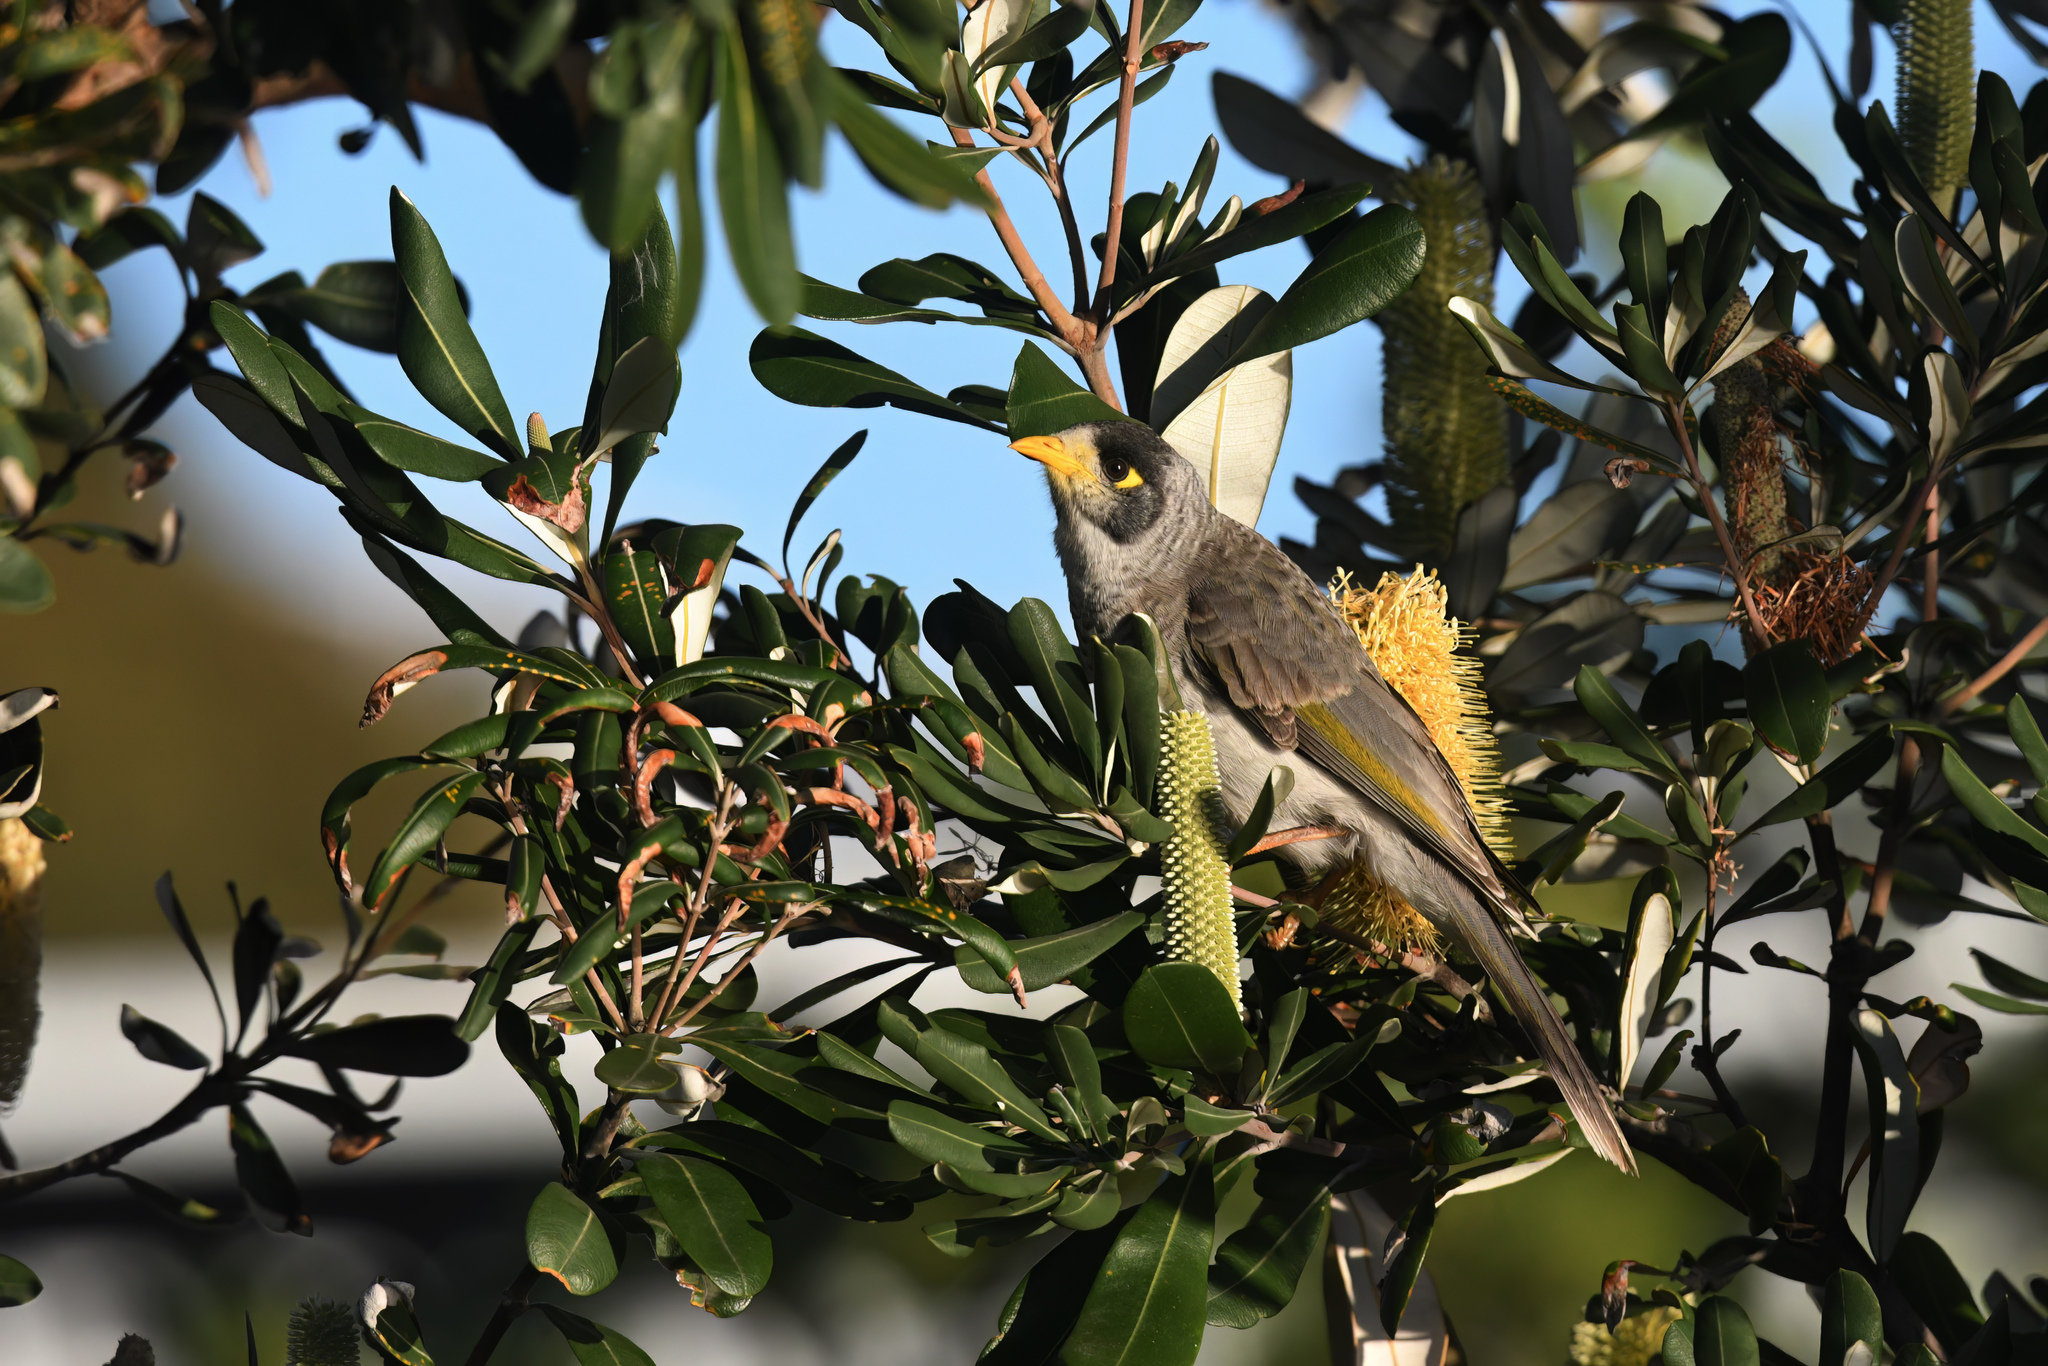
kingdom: Animalia
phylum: Chordata
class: Aves
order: Passeriformes
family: Meliphagidae
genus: Manorina
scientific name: Manorina melanocephala
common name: Noisy miner
